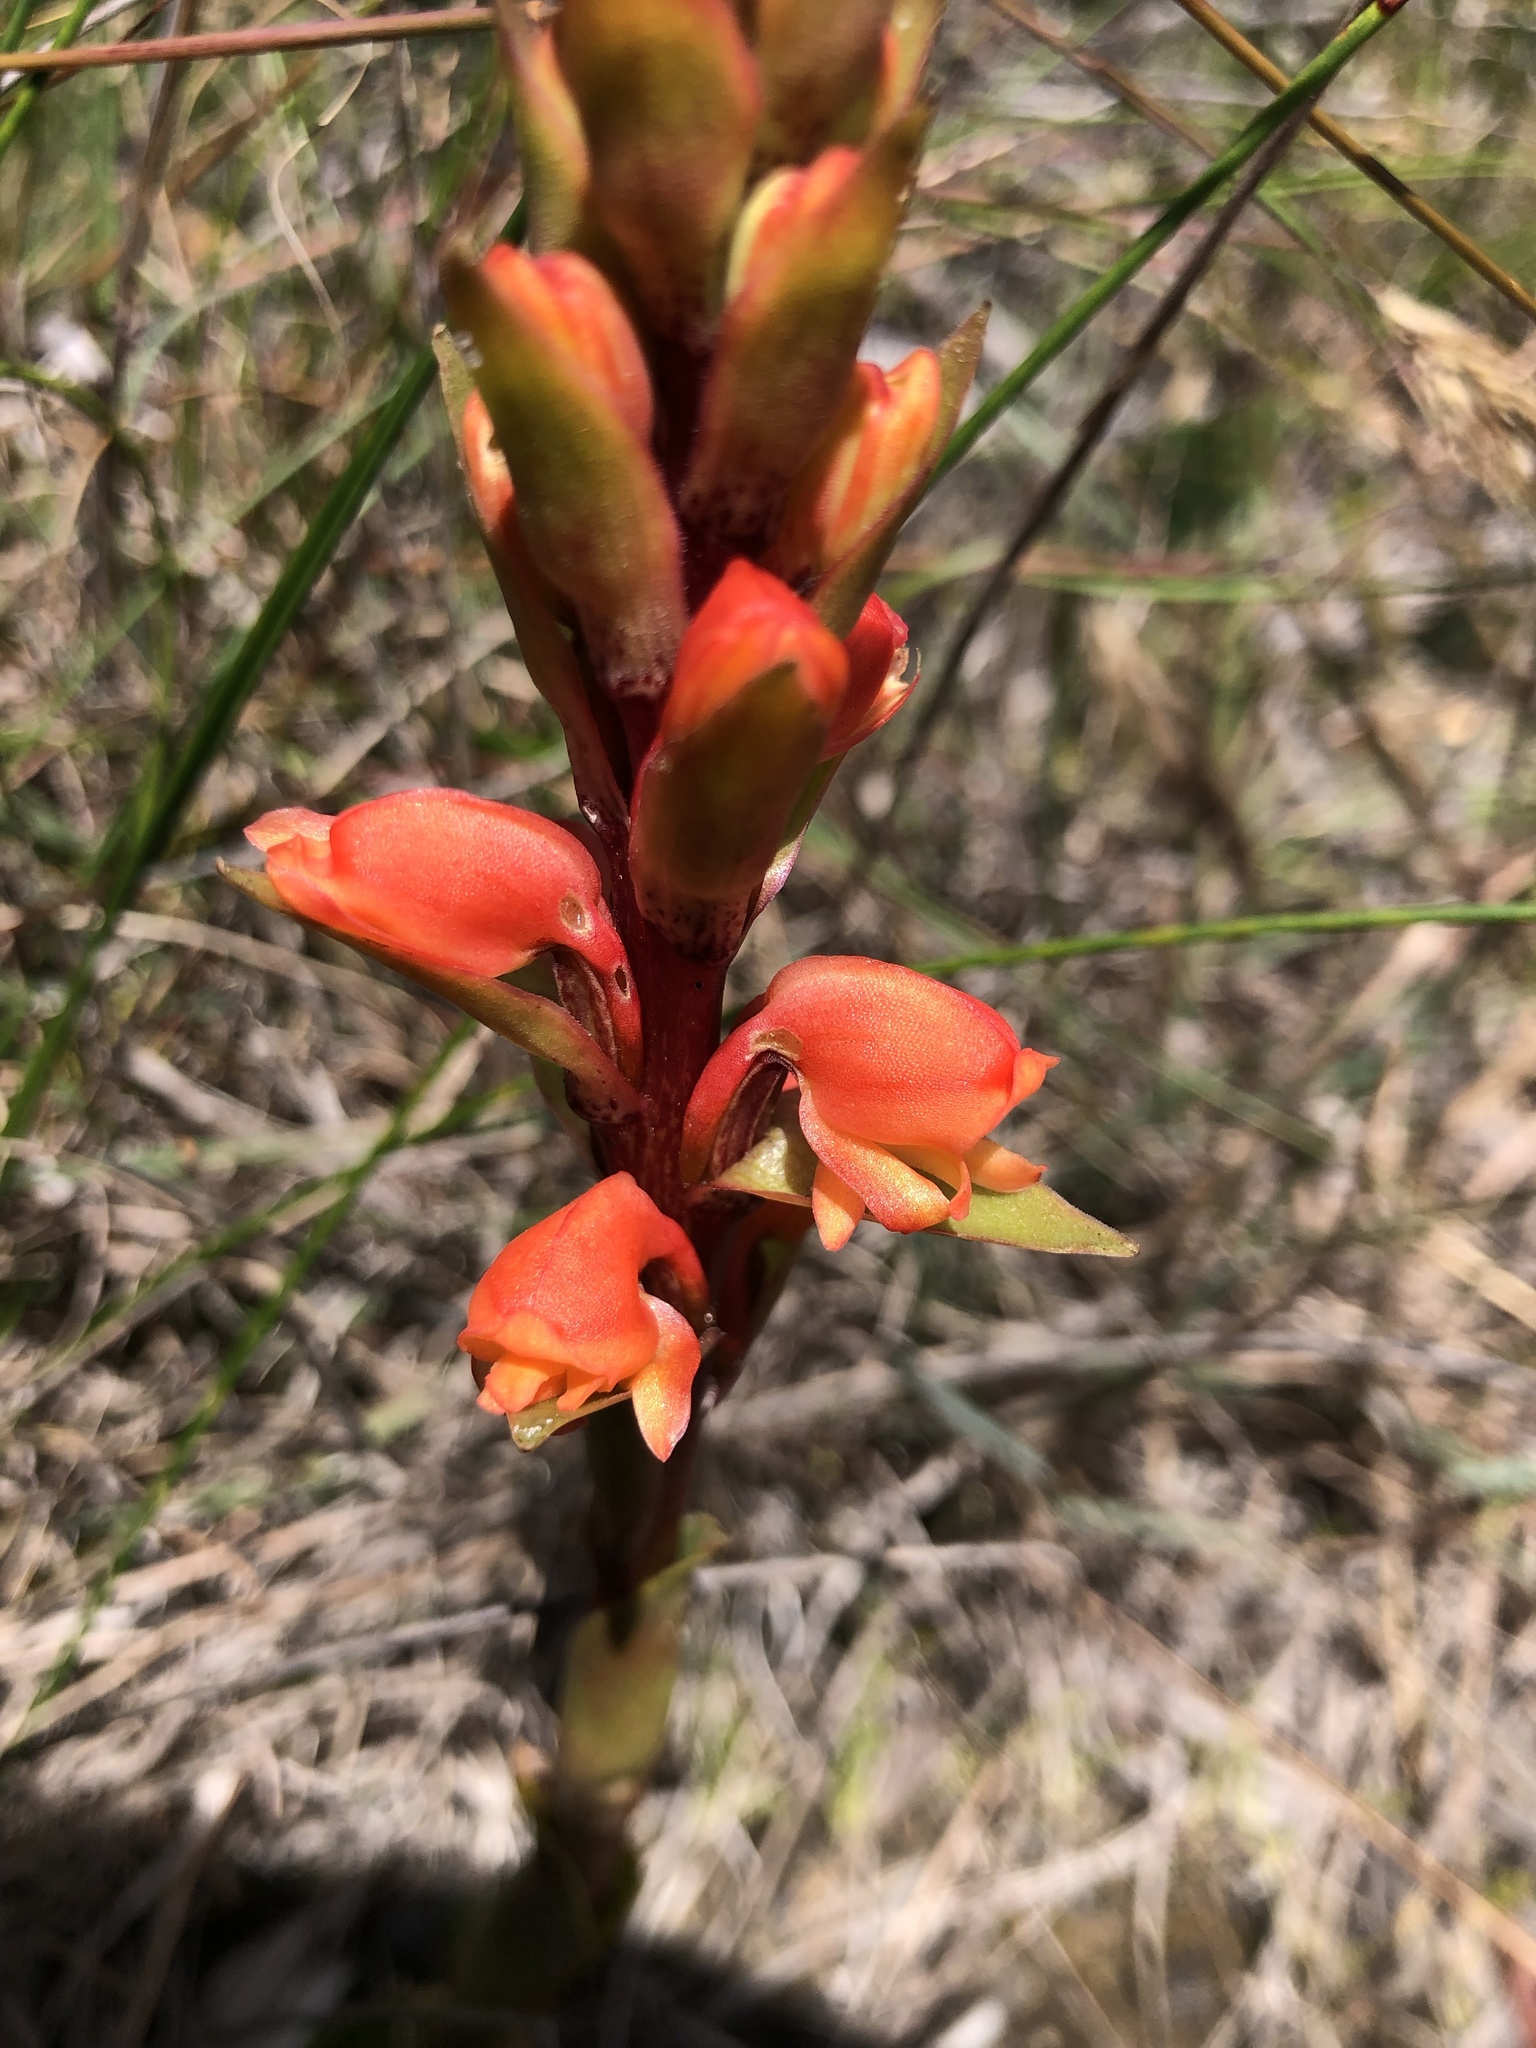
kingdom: Plantae
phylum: Tracheophyta
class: Liliopsida
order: Asparagales
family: Orchidaceae
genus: Satyrium
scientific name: Satyrium coriifolium
